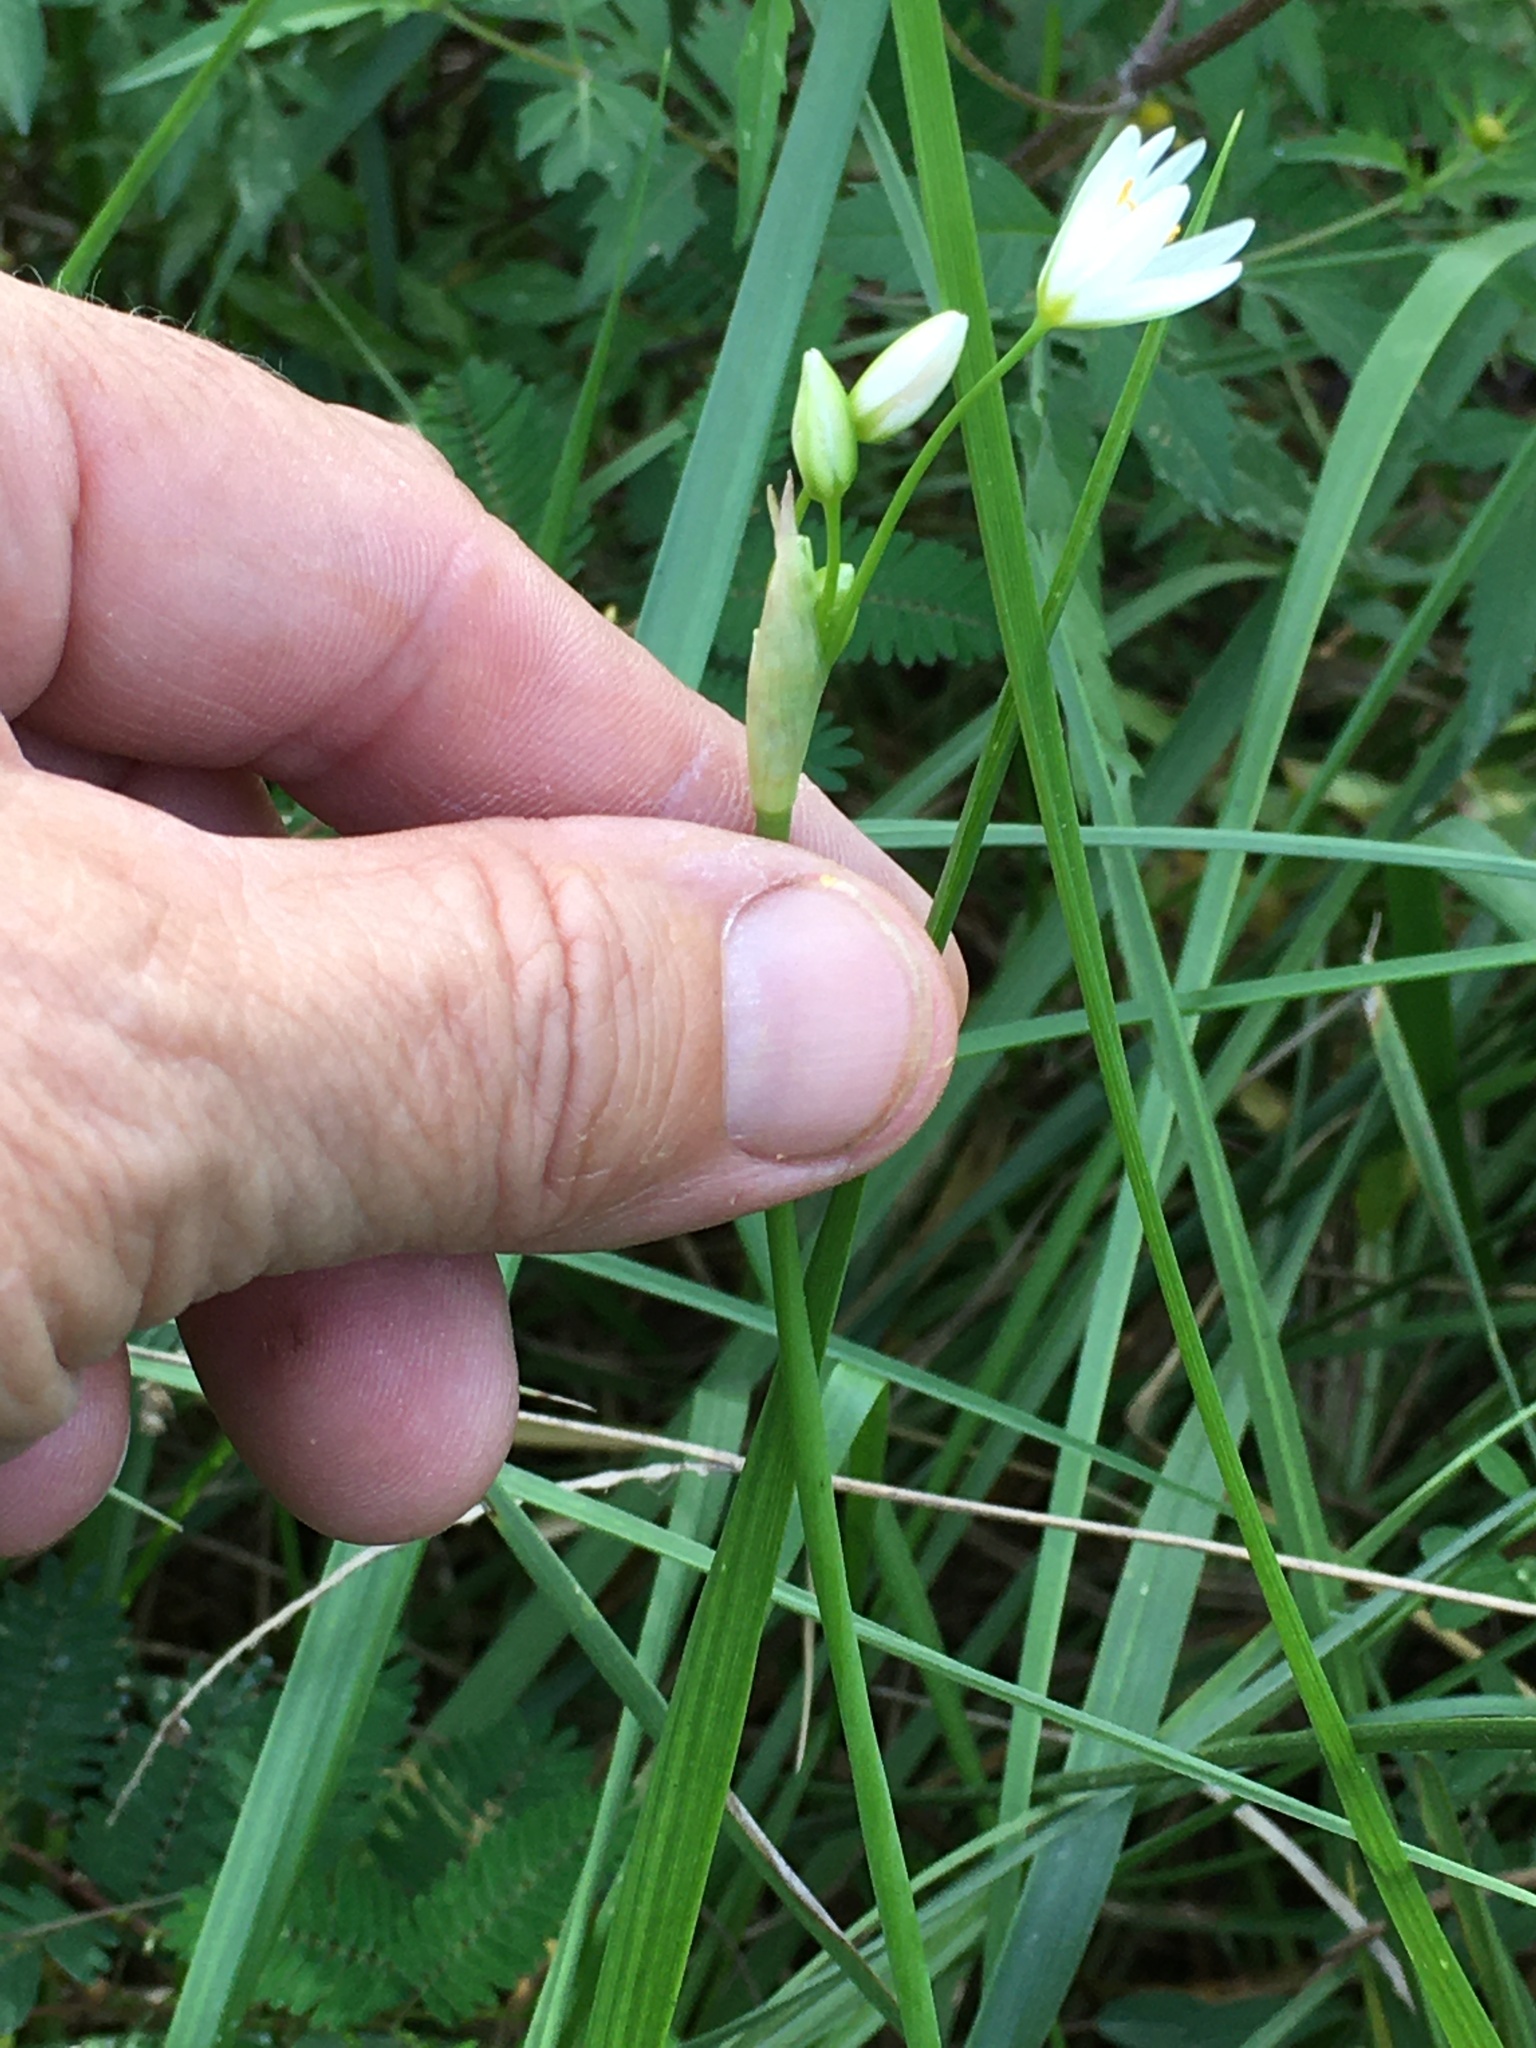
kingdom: Plantae
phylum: Tracheophyta
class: Liliopsida
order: Asparagales
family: Amaryllidaceae
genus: Nothoscordum
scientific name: Nothoscordum bivalve
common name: Crow-poison
